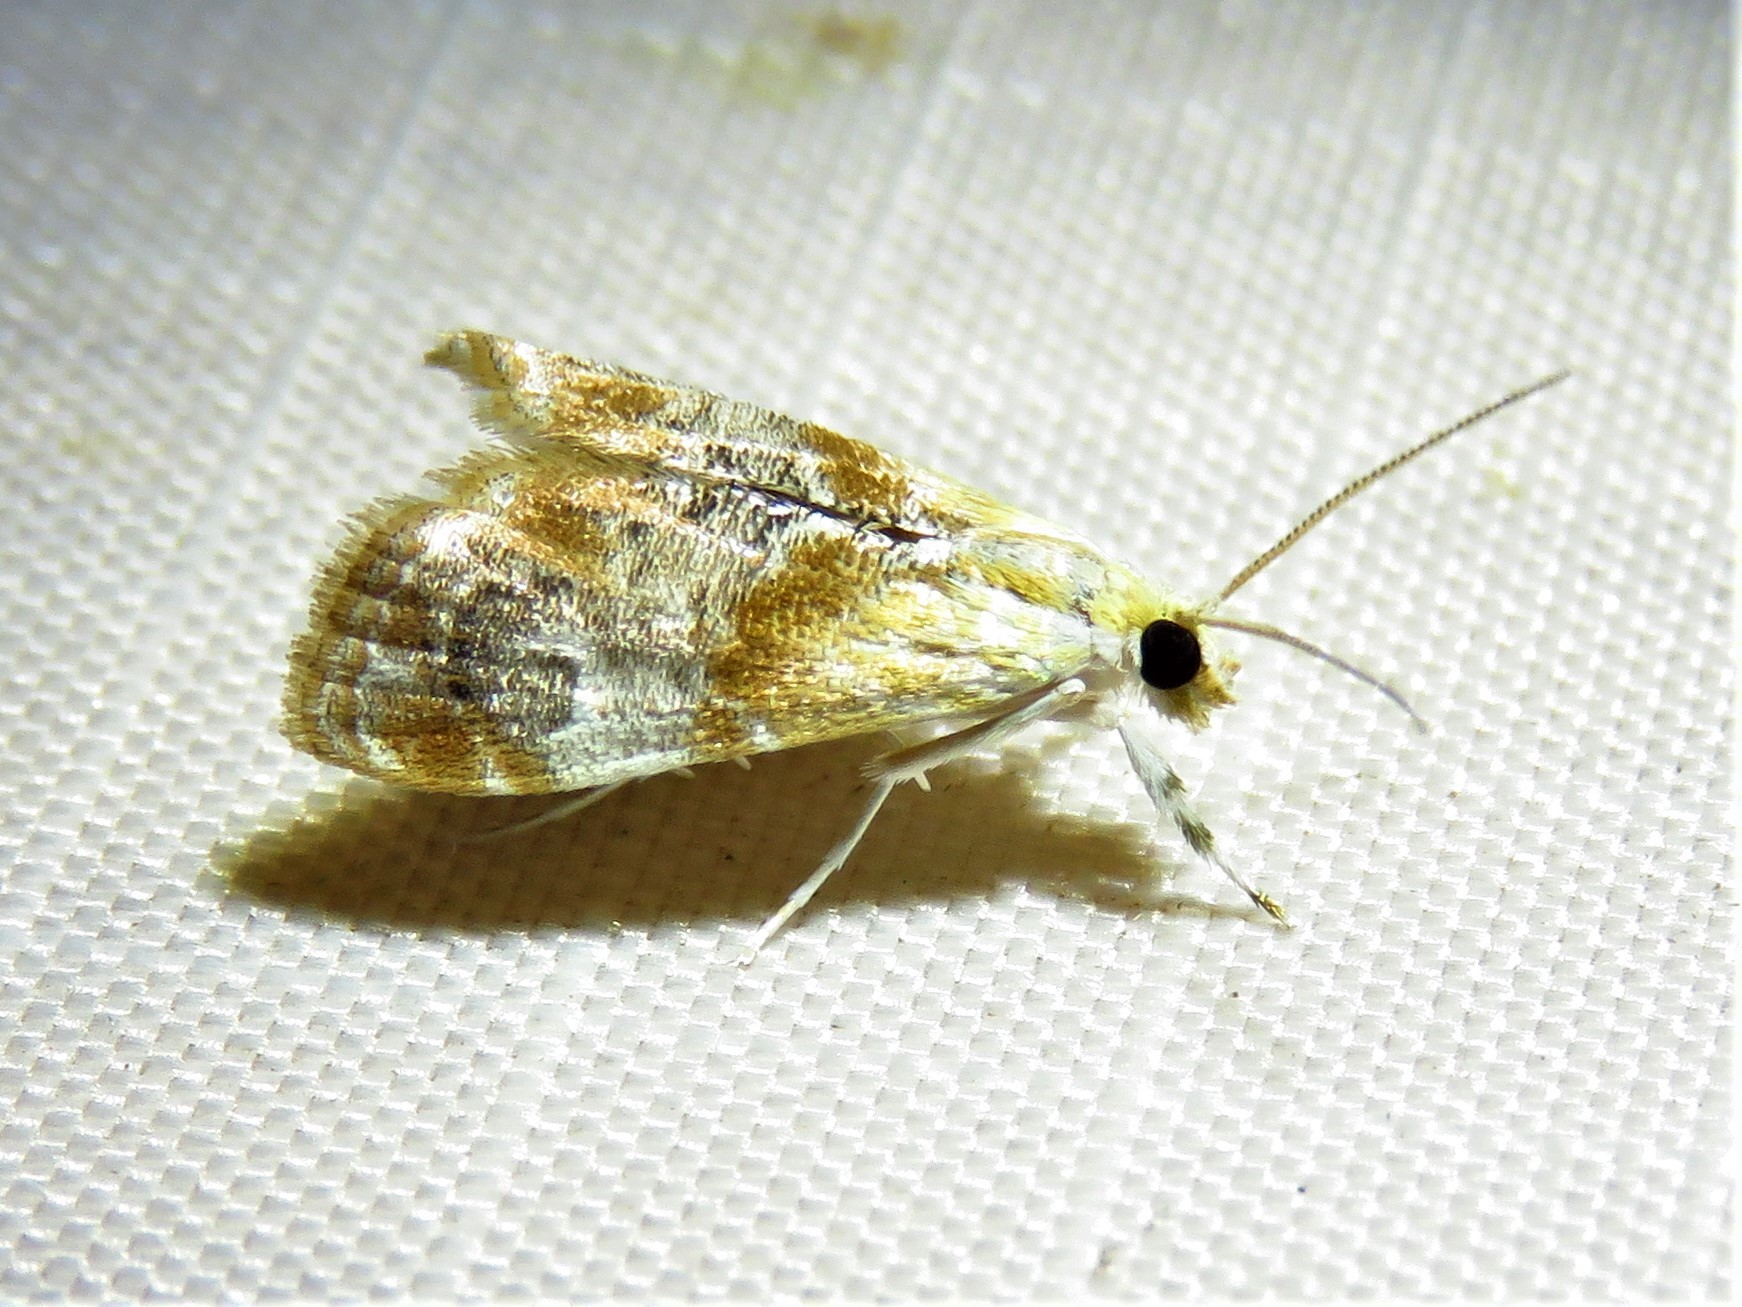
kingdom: Animalia
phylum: Arthropoda
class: Insecta
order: Lepidoptera
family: Crambidae
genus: Dicymolomia
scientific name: Dicymolomia julianalis
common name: Julia's dicymolomia moth
